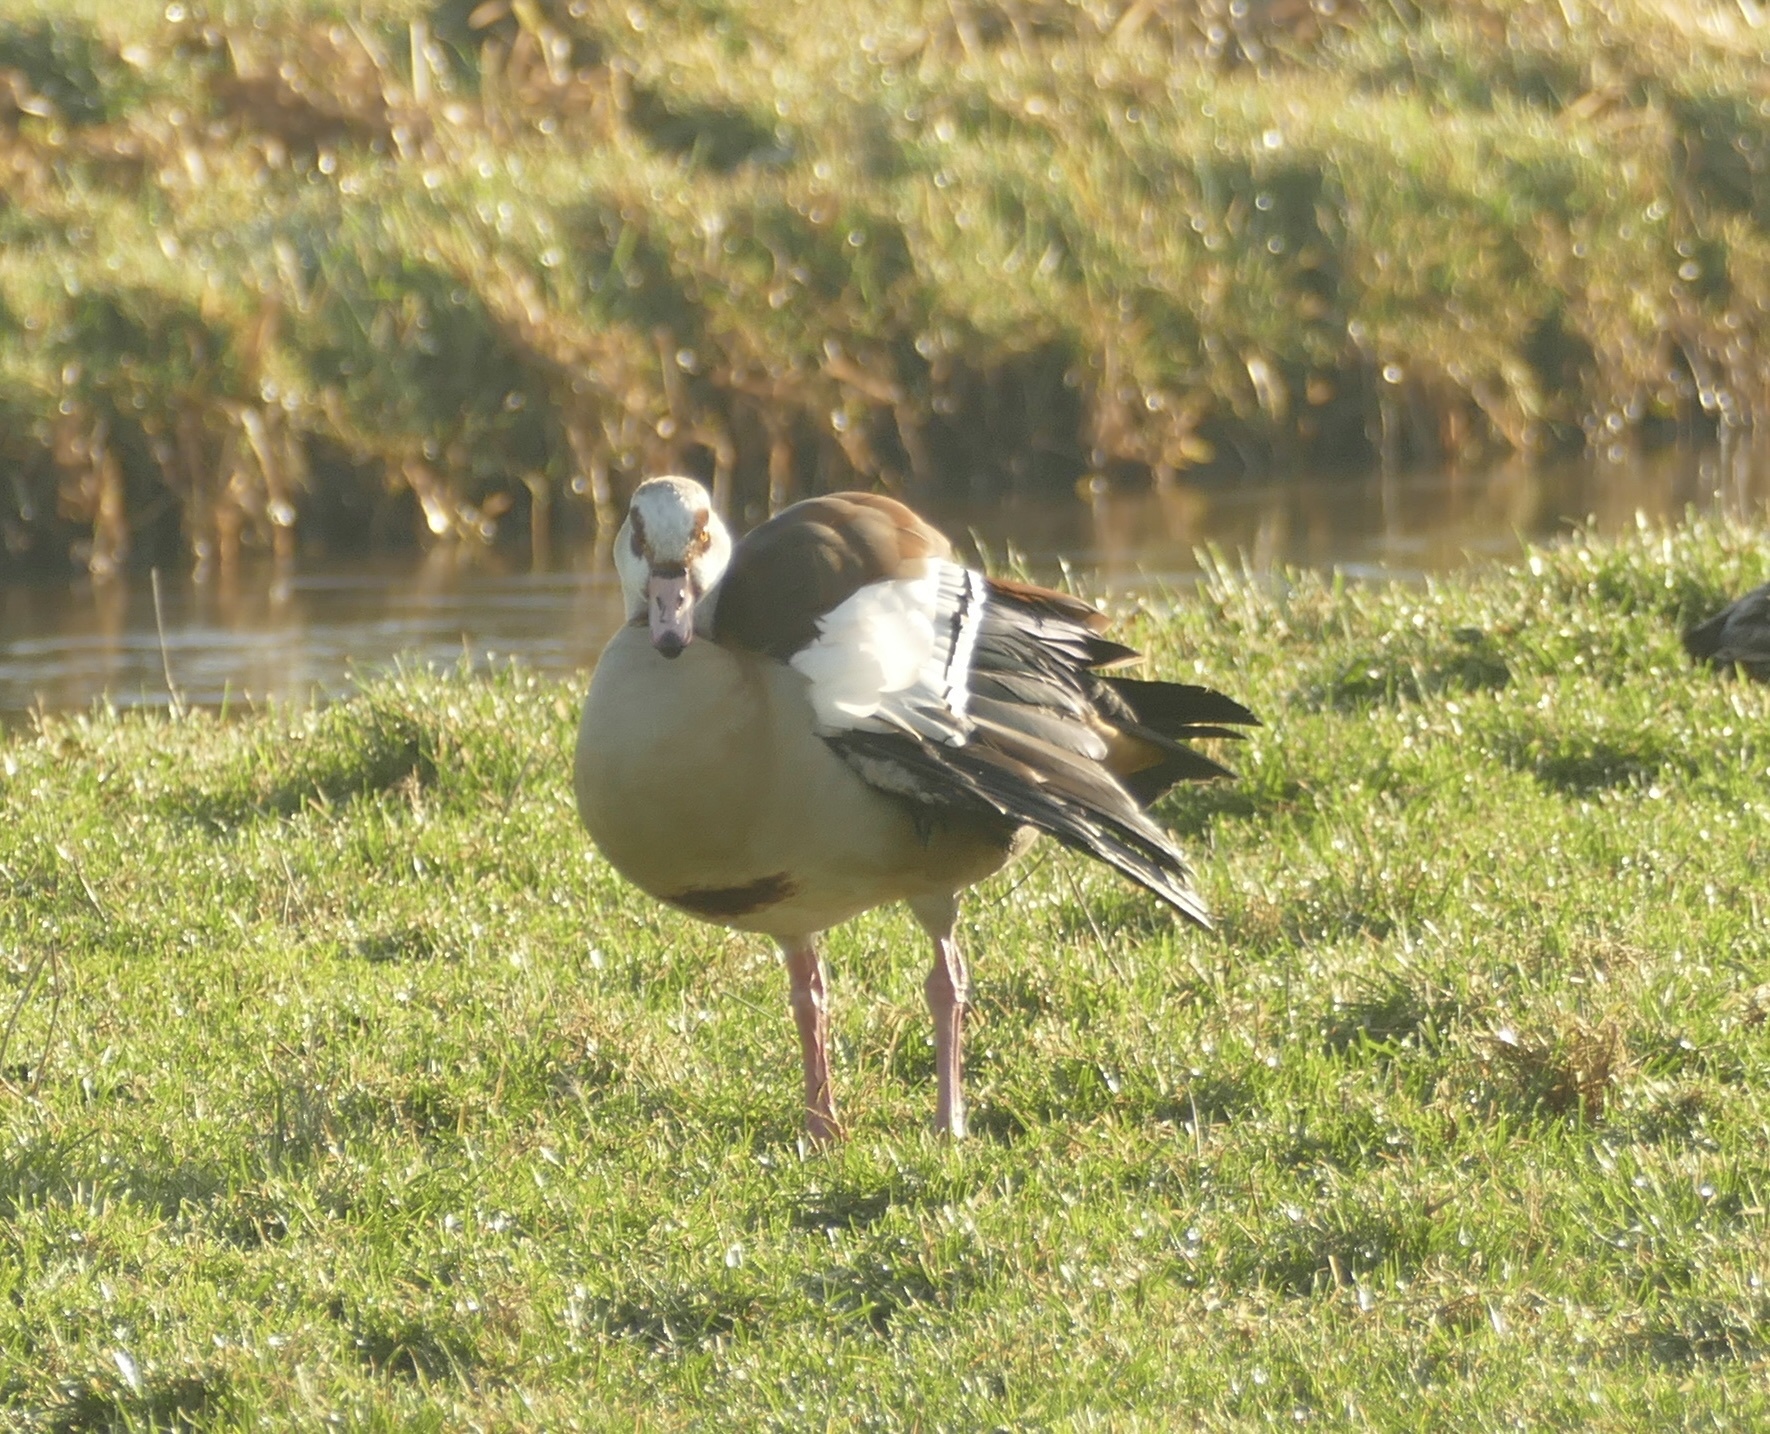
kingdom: Animalia
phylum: Chordata
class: Aves
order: Anseriformes
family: Anatidae
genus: Alopochen
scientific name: Alopochen aegyptiaca
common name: Egyptian goose
